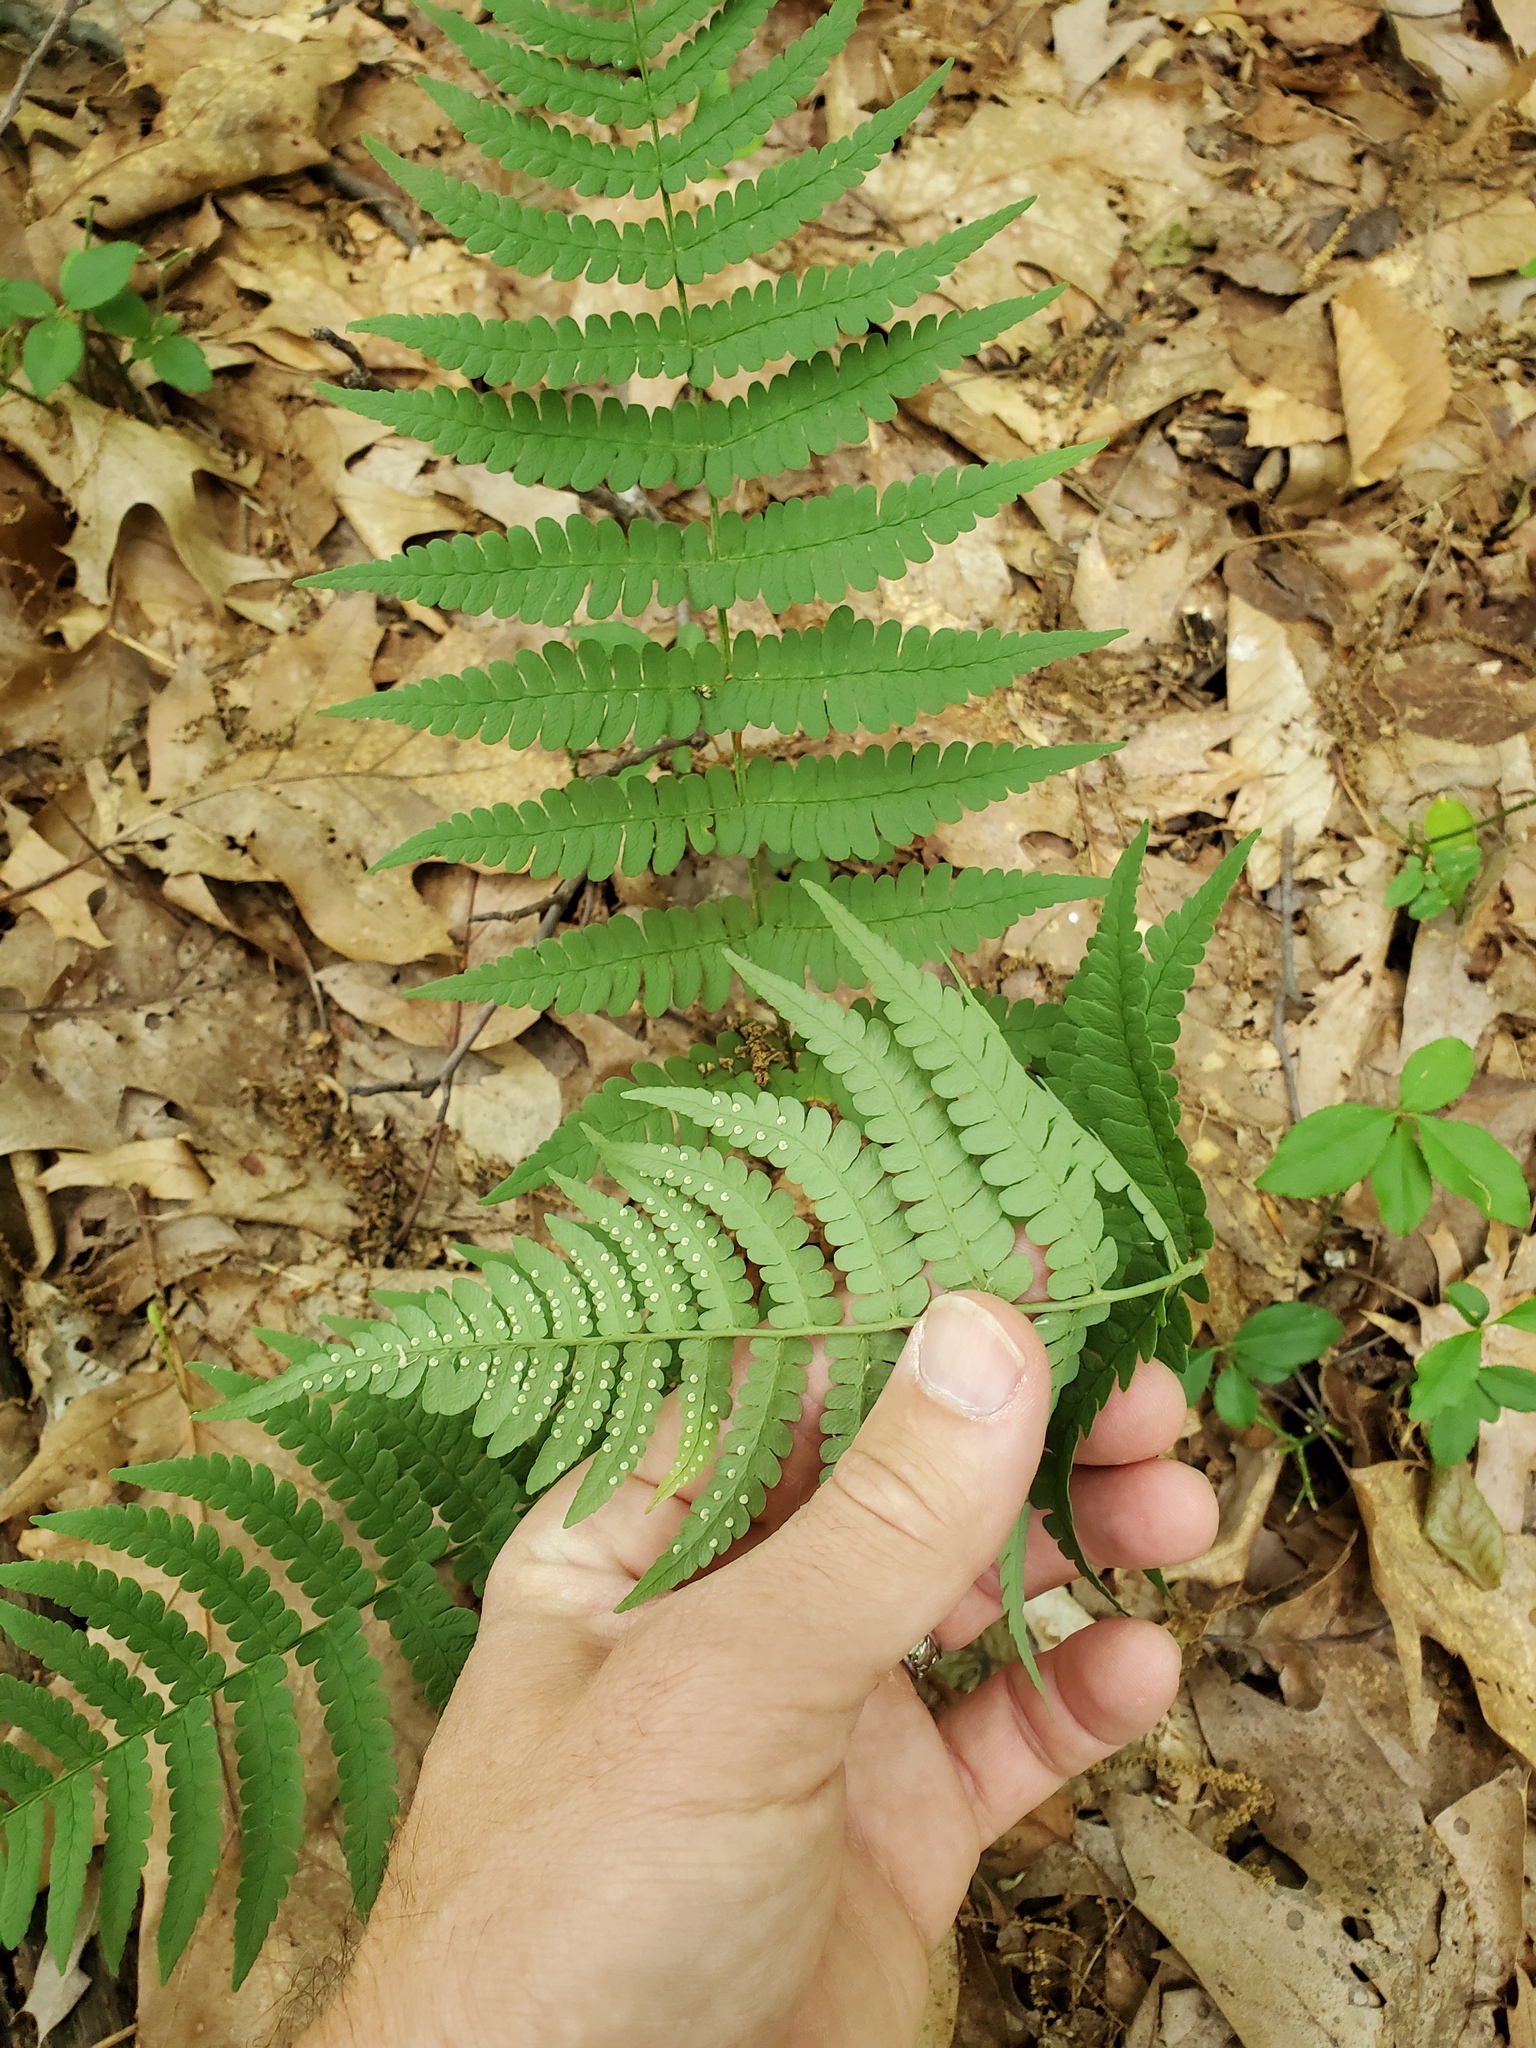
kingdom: Plantae
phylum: Tracheophyta
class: Polypodiopsida
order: Polypodiales
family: Dryopteridaceae
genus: Dryopteris
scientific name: Dryopteris marginalis
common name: Marginal wood fern
